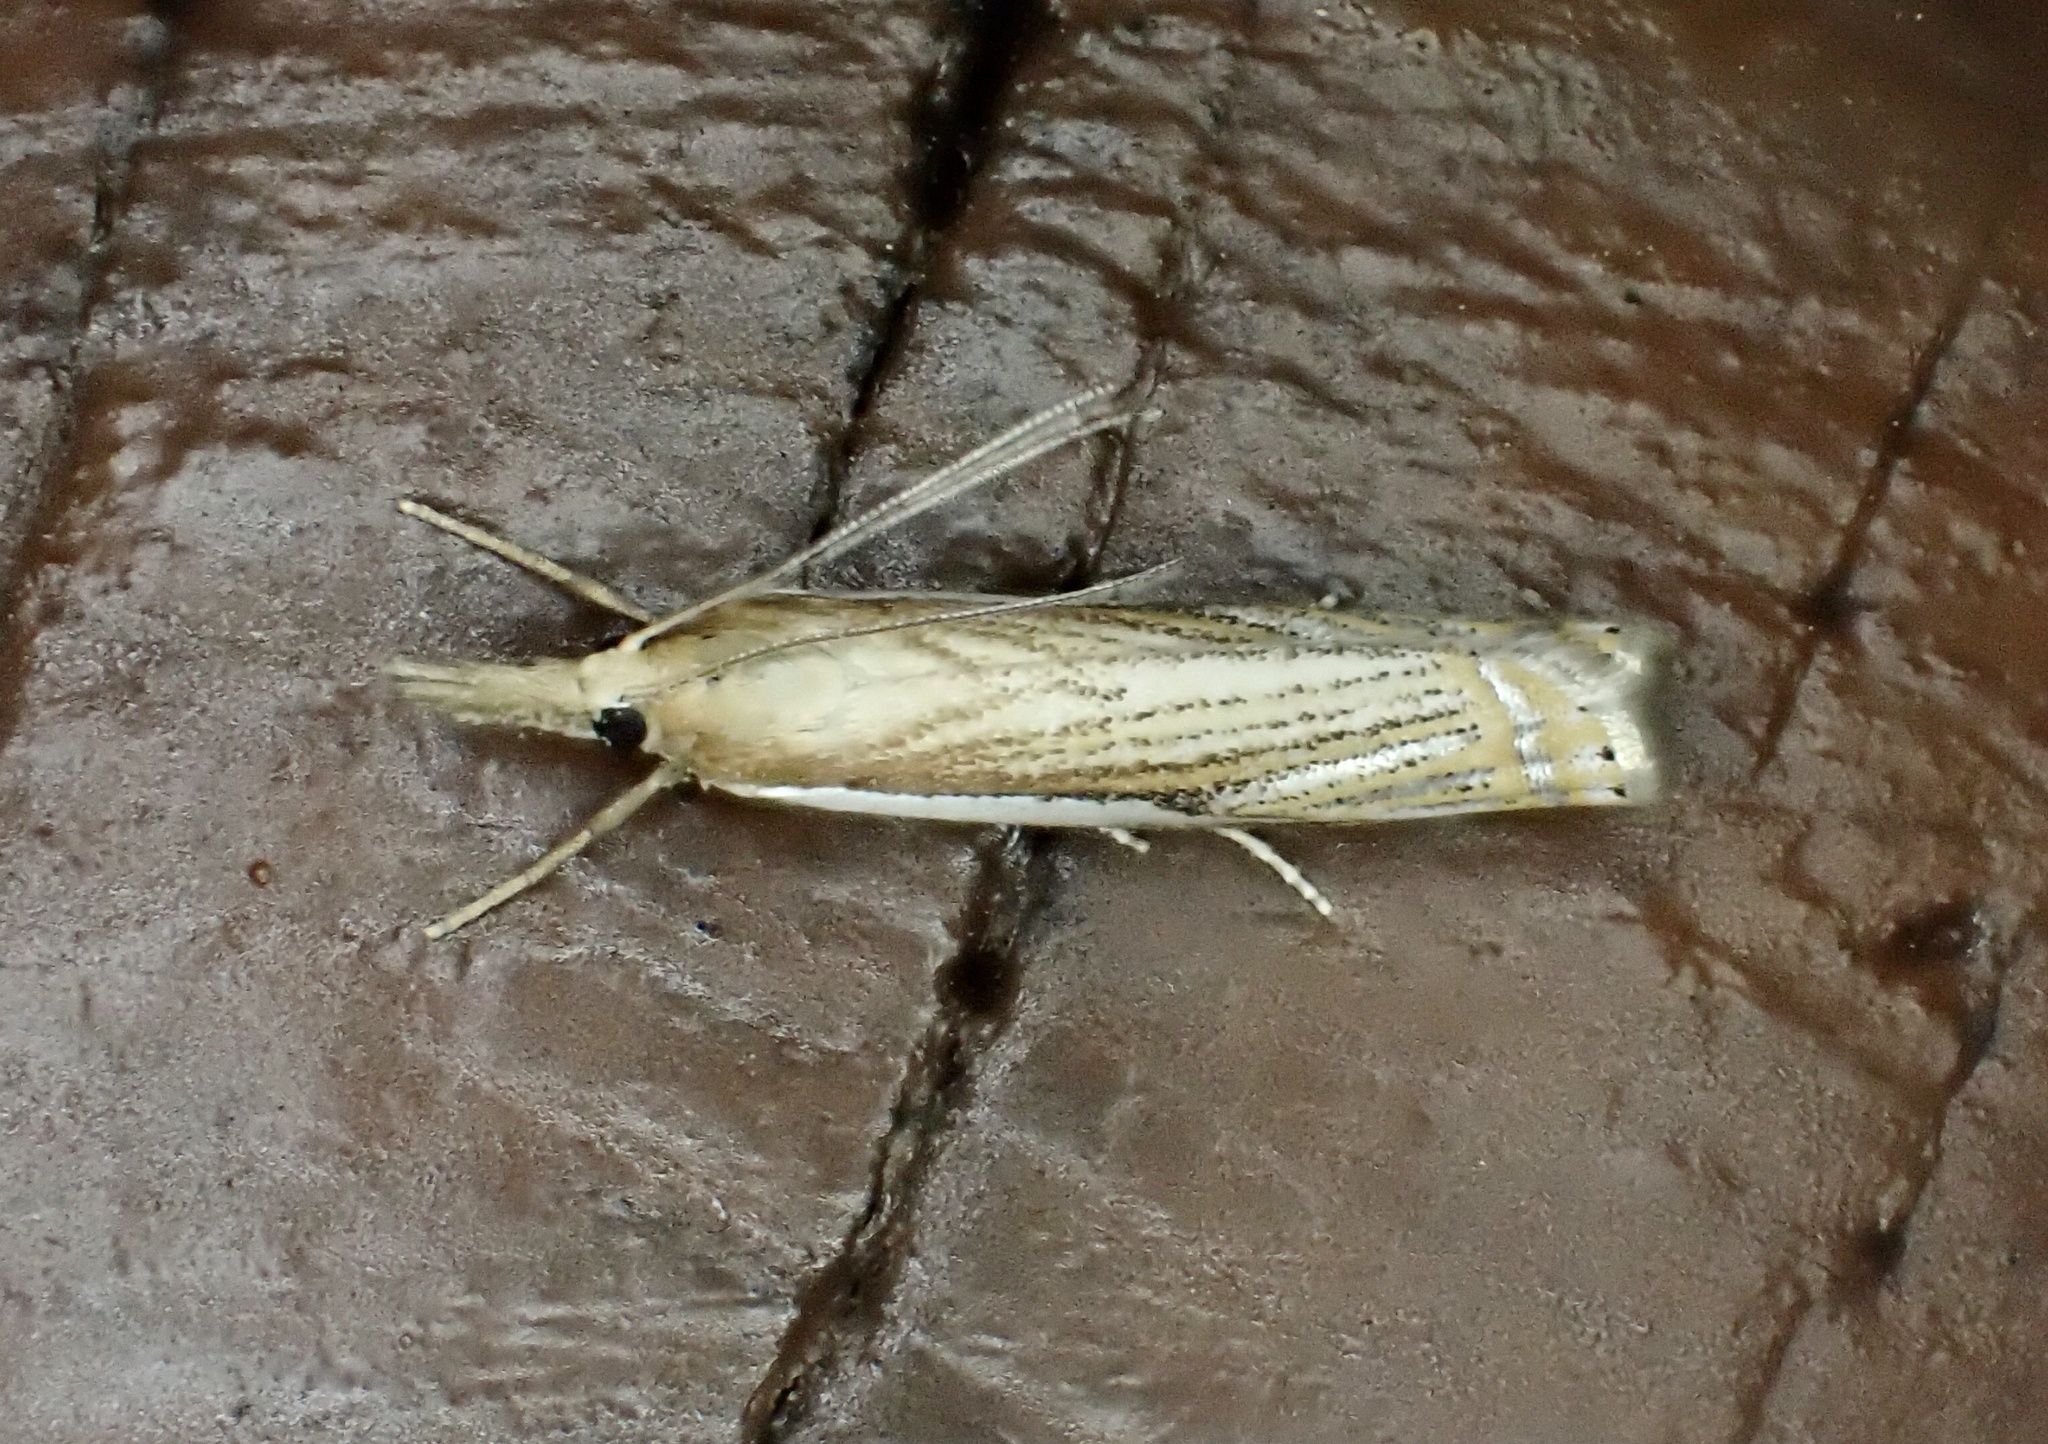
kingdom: Animalia
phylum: Arthropoda
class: Insecta
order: Lepidoptera
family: Crambidae
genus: Crambus
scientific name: Crambus saltuellus
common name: Pasture grass-veneer
